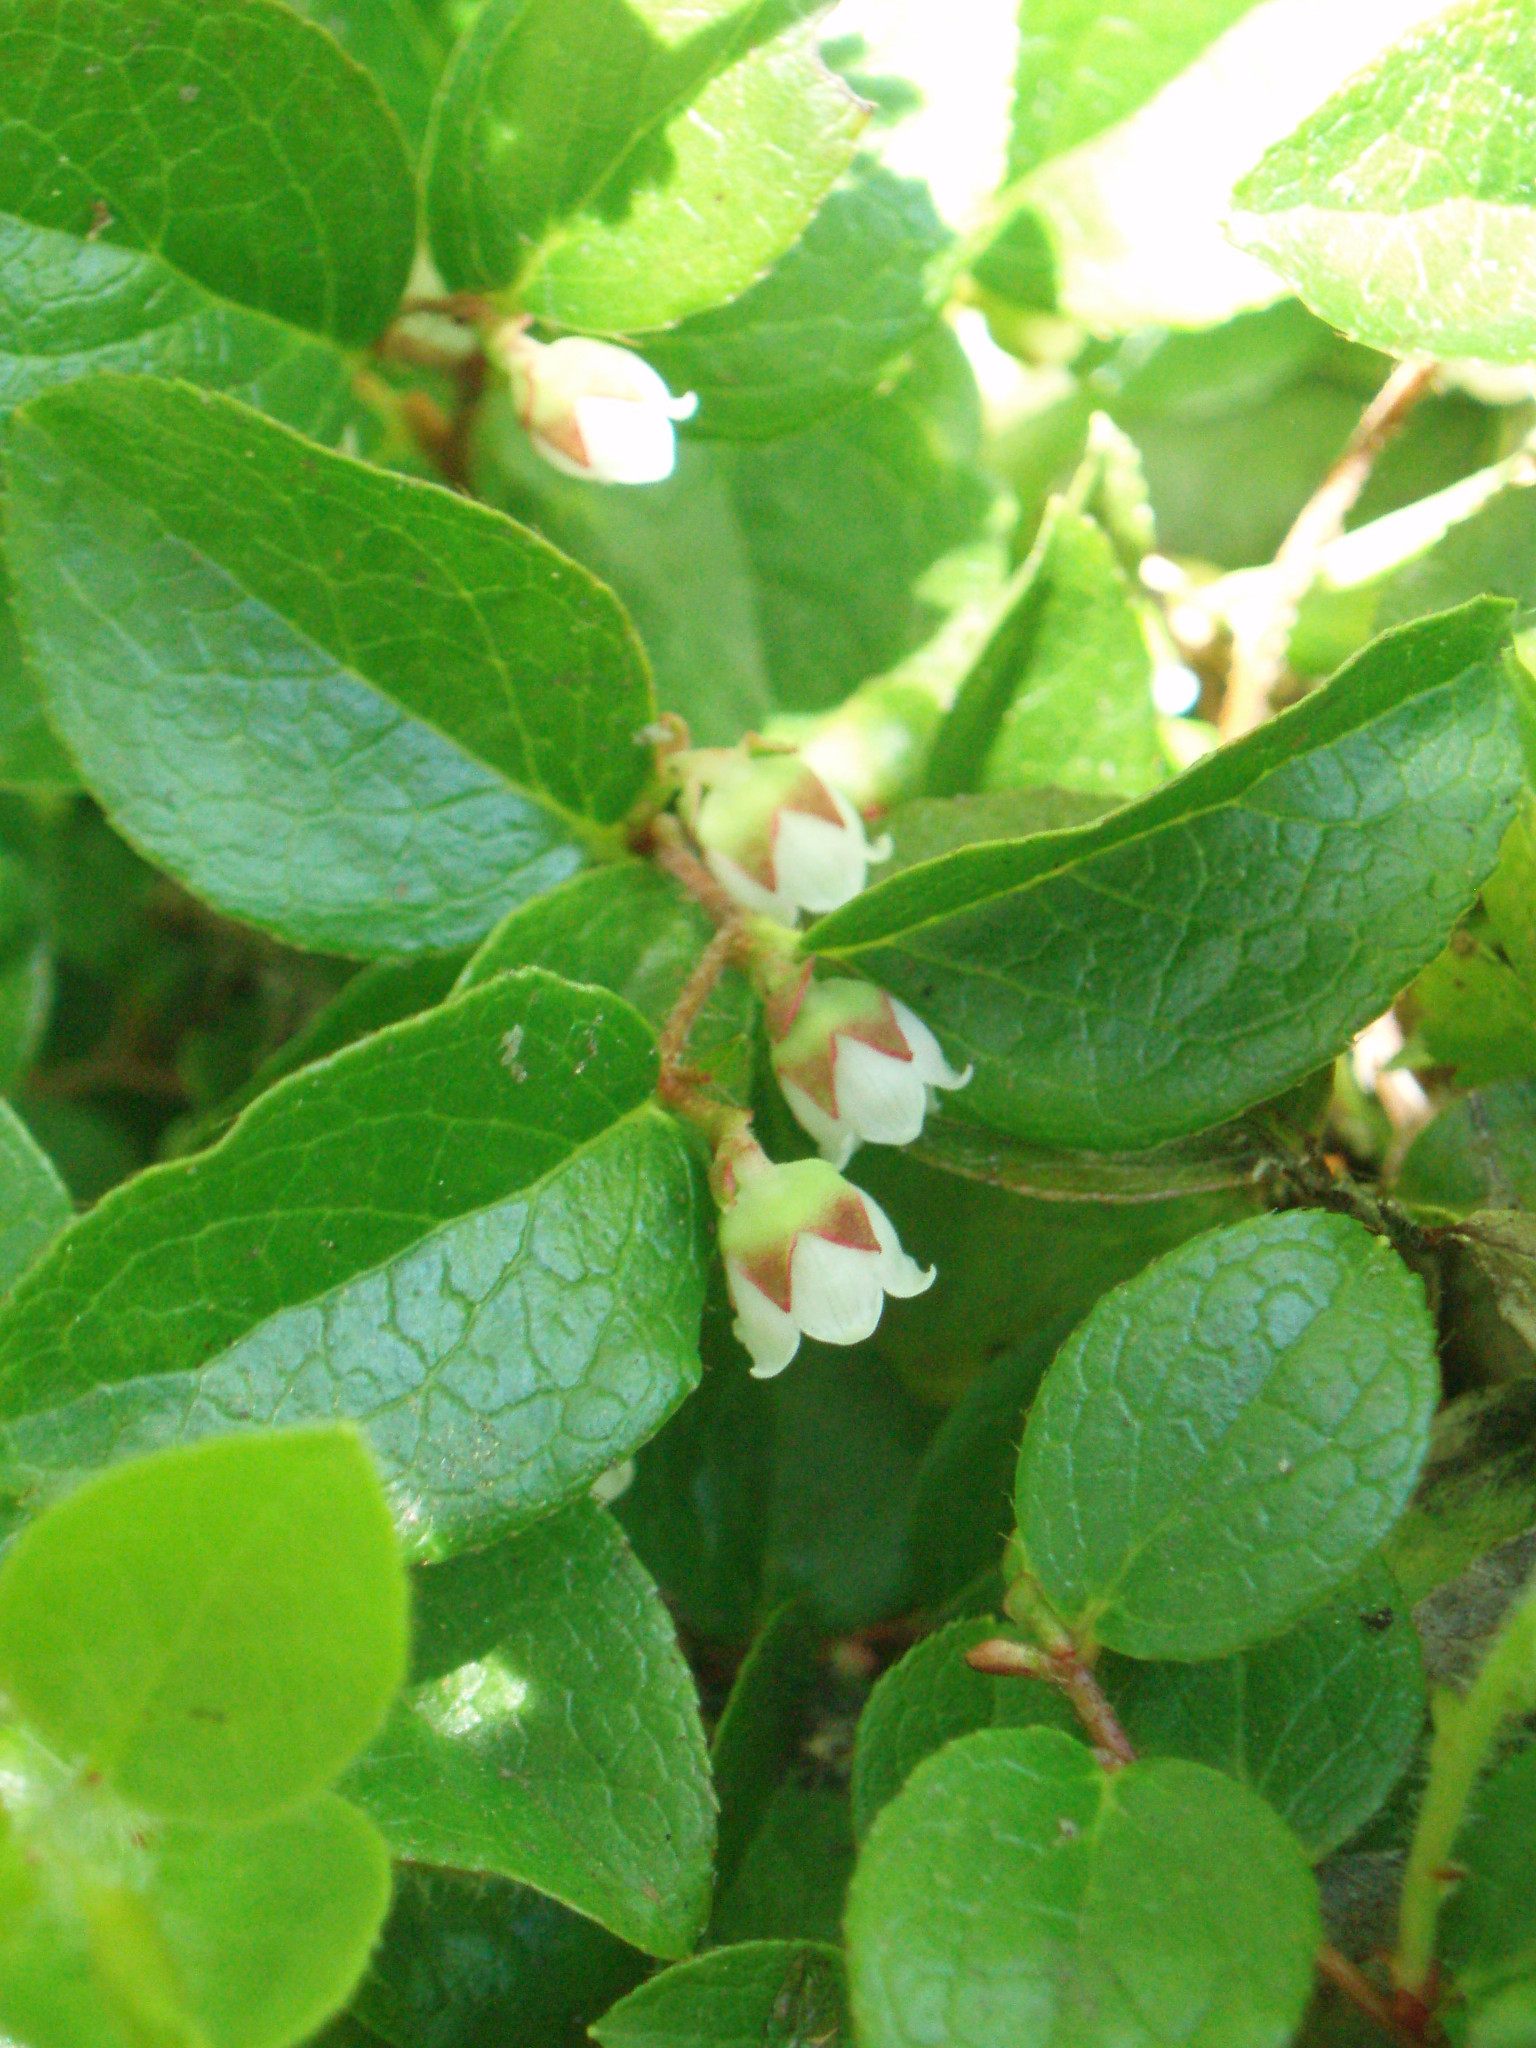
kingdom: Plantae
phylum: Tracheophyta
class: Magnoliopsida
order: Ericales
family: Ericaceae
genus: Gaultheria
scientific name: Gaultheria ovatifolia
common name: Oregon wintergreen
